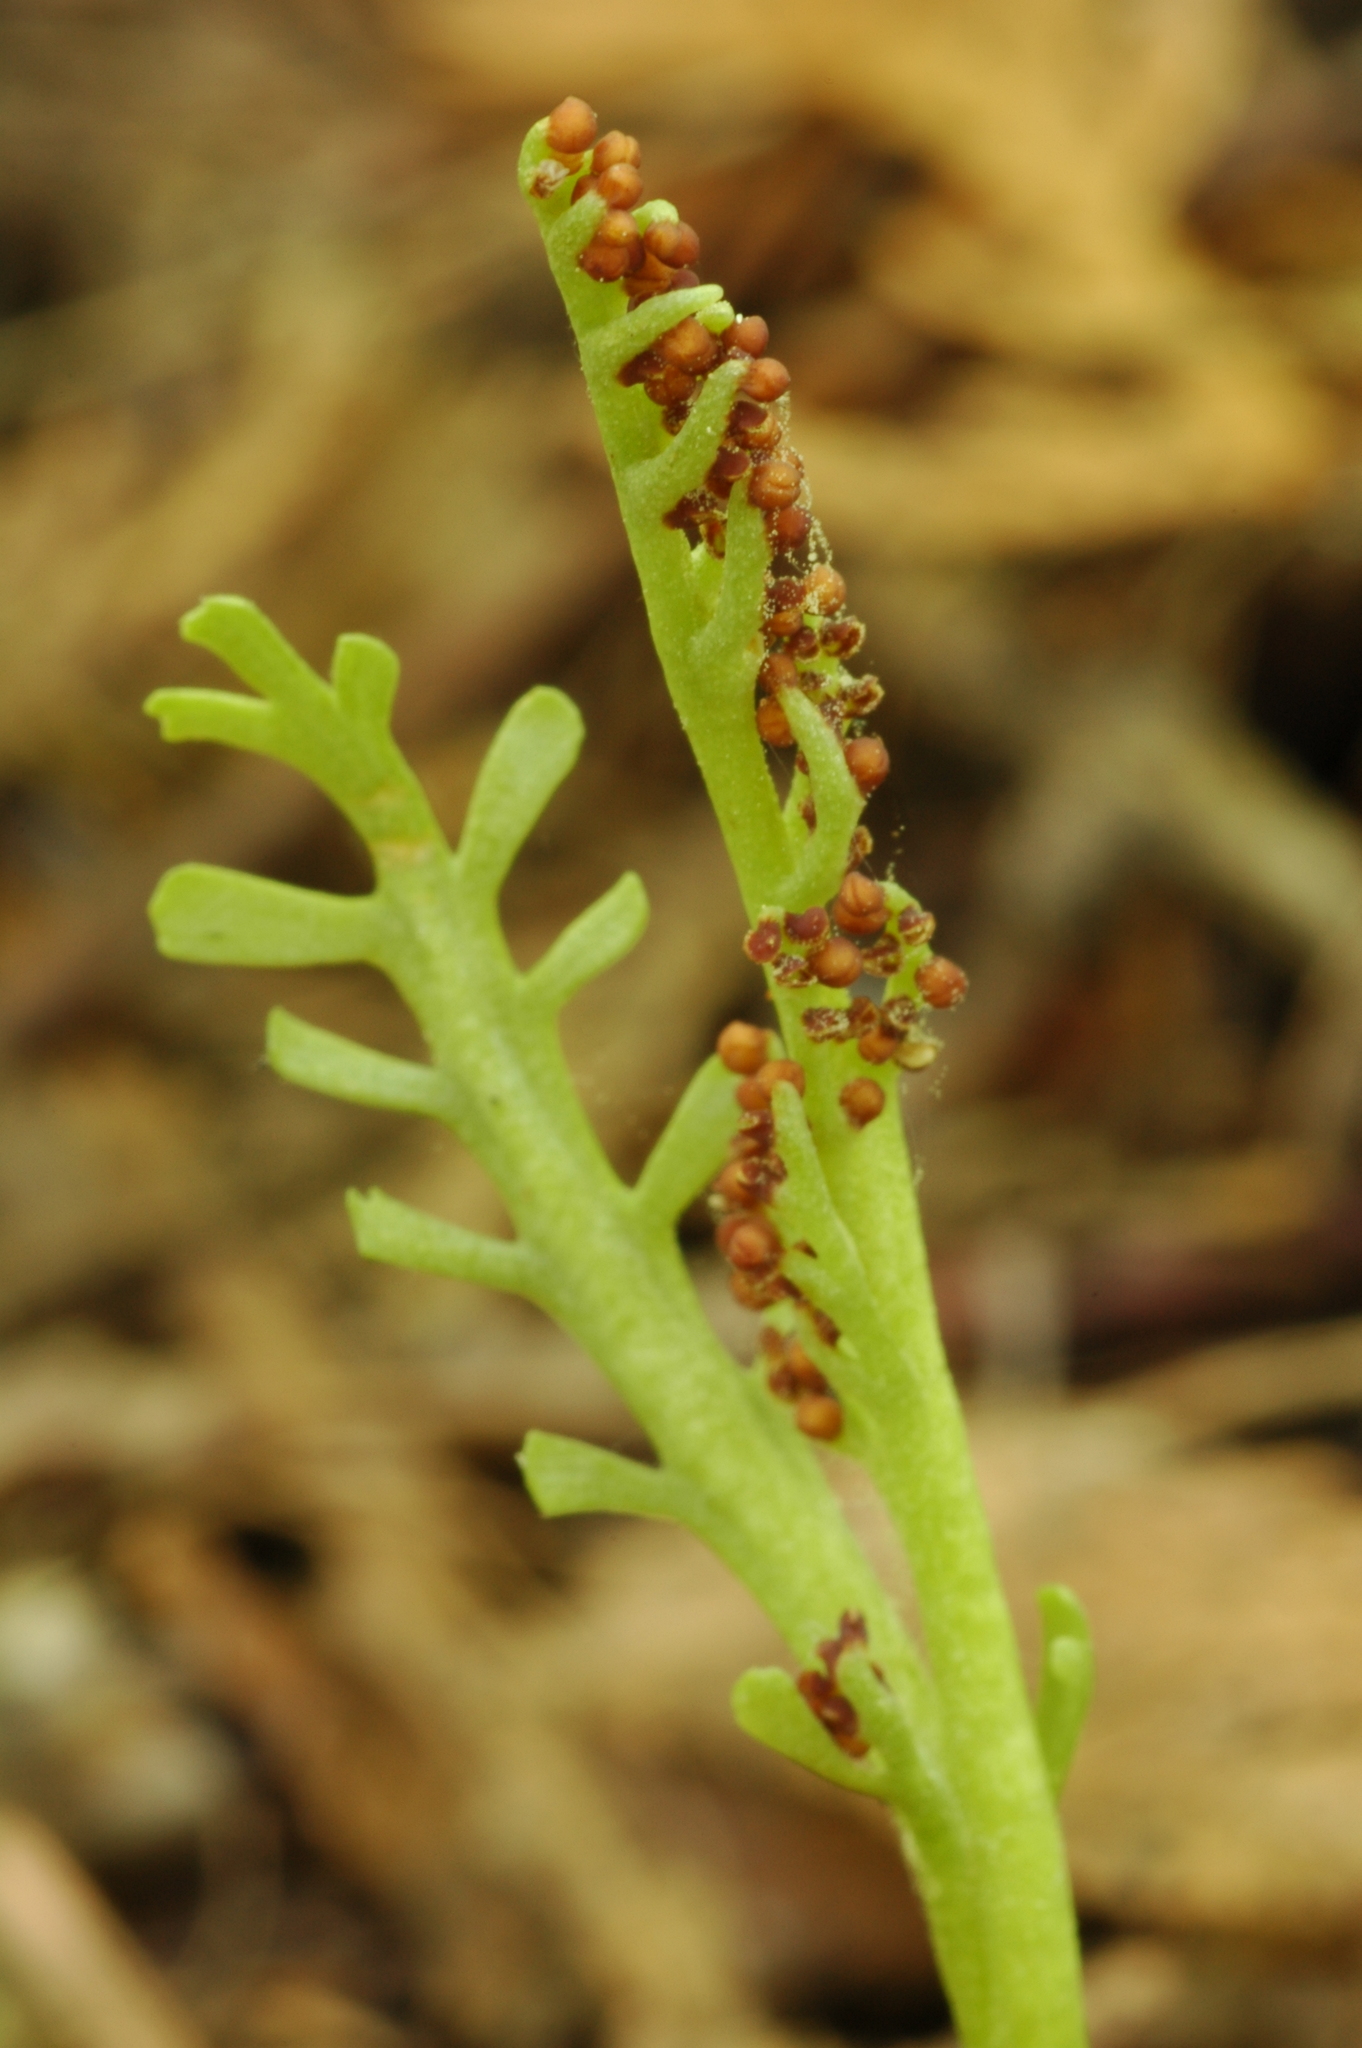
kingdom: Plantae
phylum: Tracheophyta
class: Polypodiopsida
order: Ophioglossales
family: Ophioglossaceae
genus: Botrychium
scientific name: Botrychium lineare
